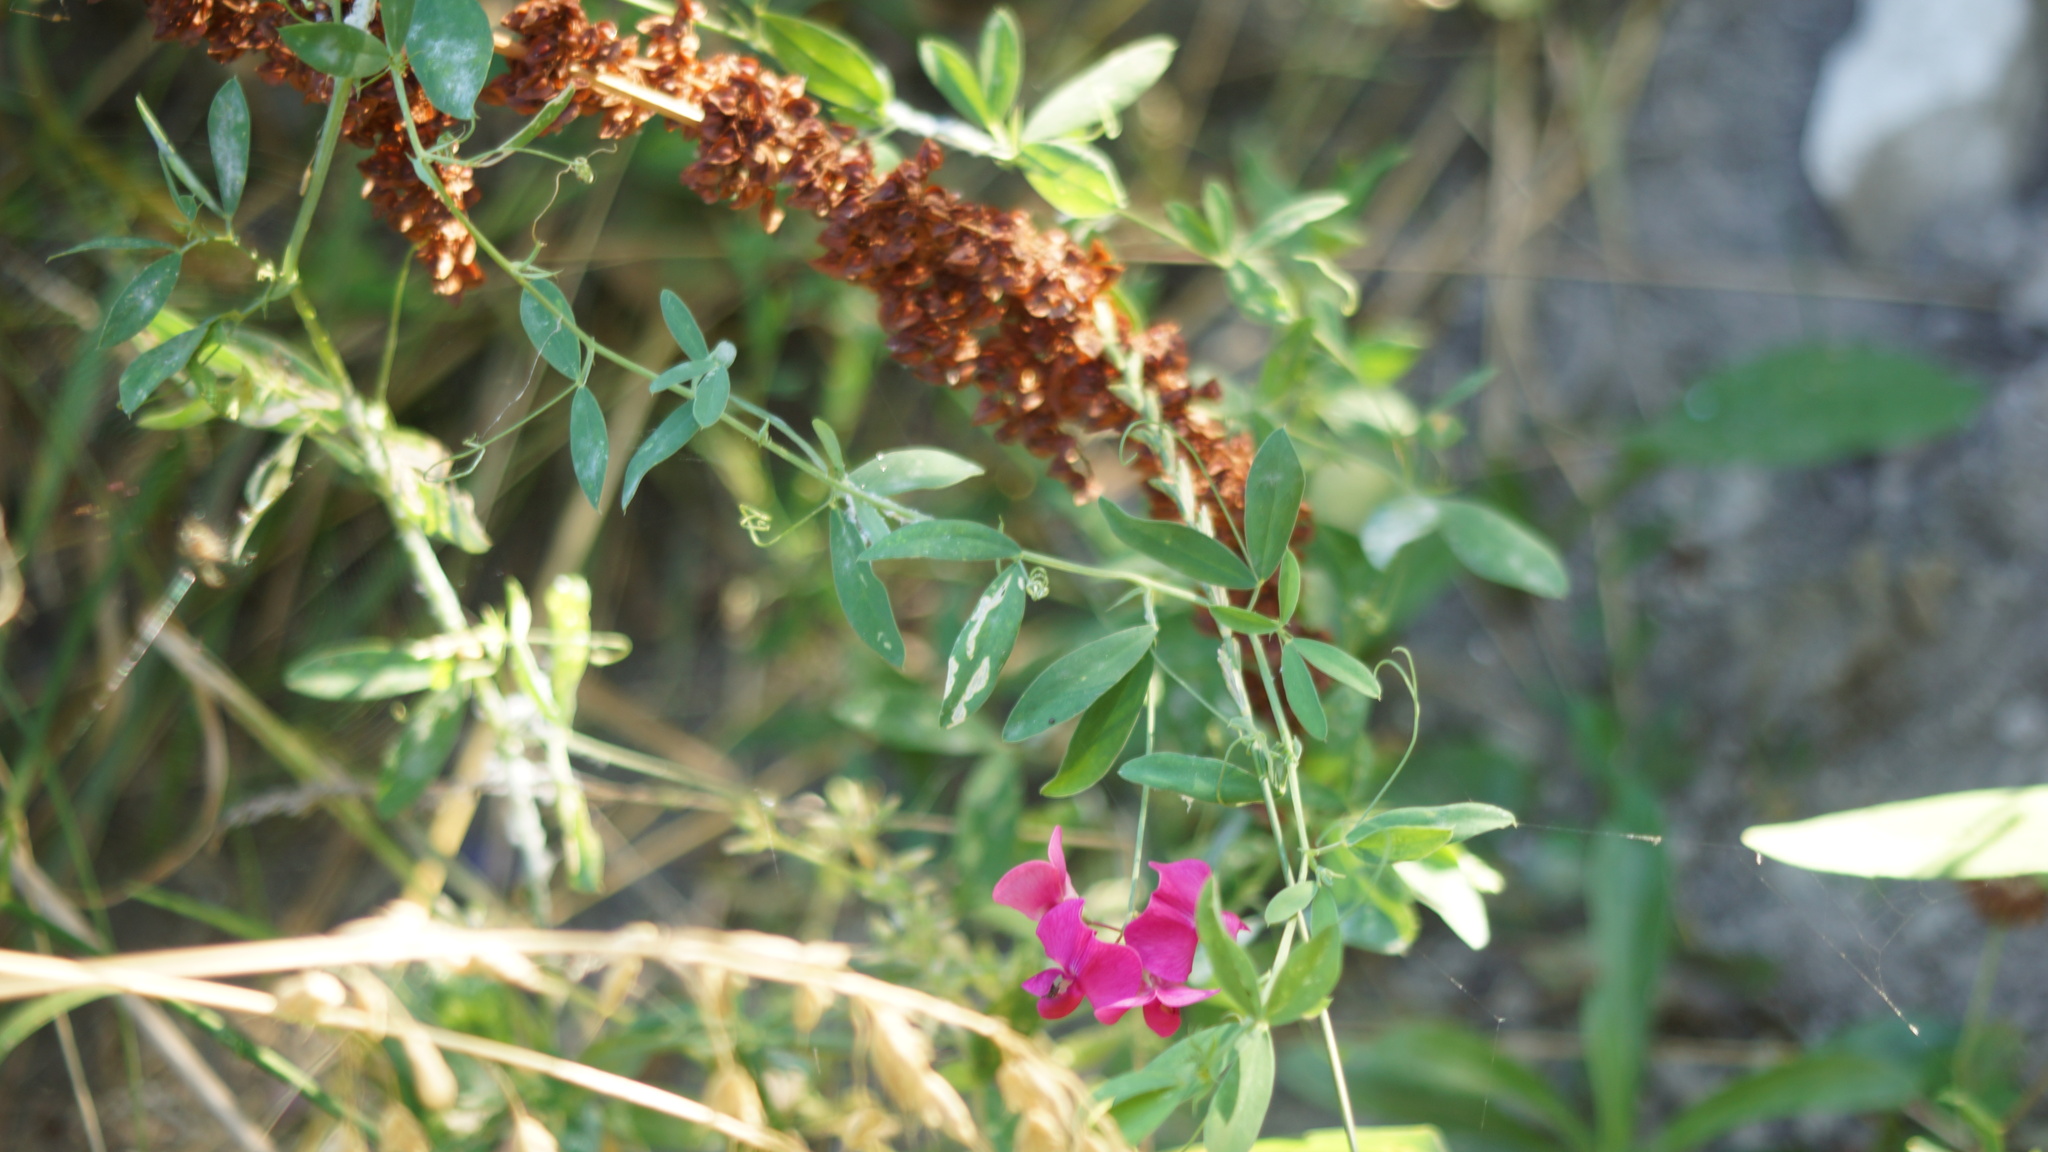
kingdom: Plantae
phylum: Tracheophyta
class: Magnoliopsida
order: Fabales
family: Fabaceae
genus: Lathyrus
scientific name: Lathyrus tuberosus
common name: Tuberous pea
